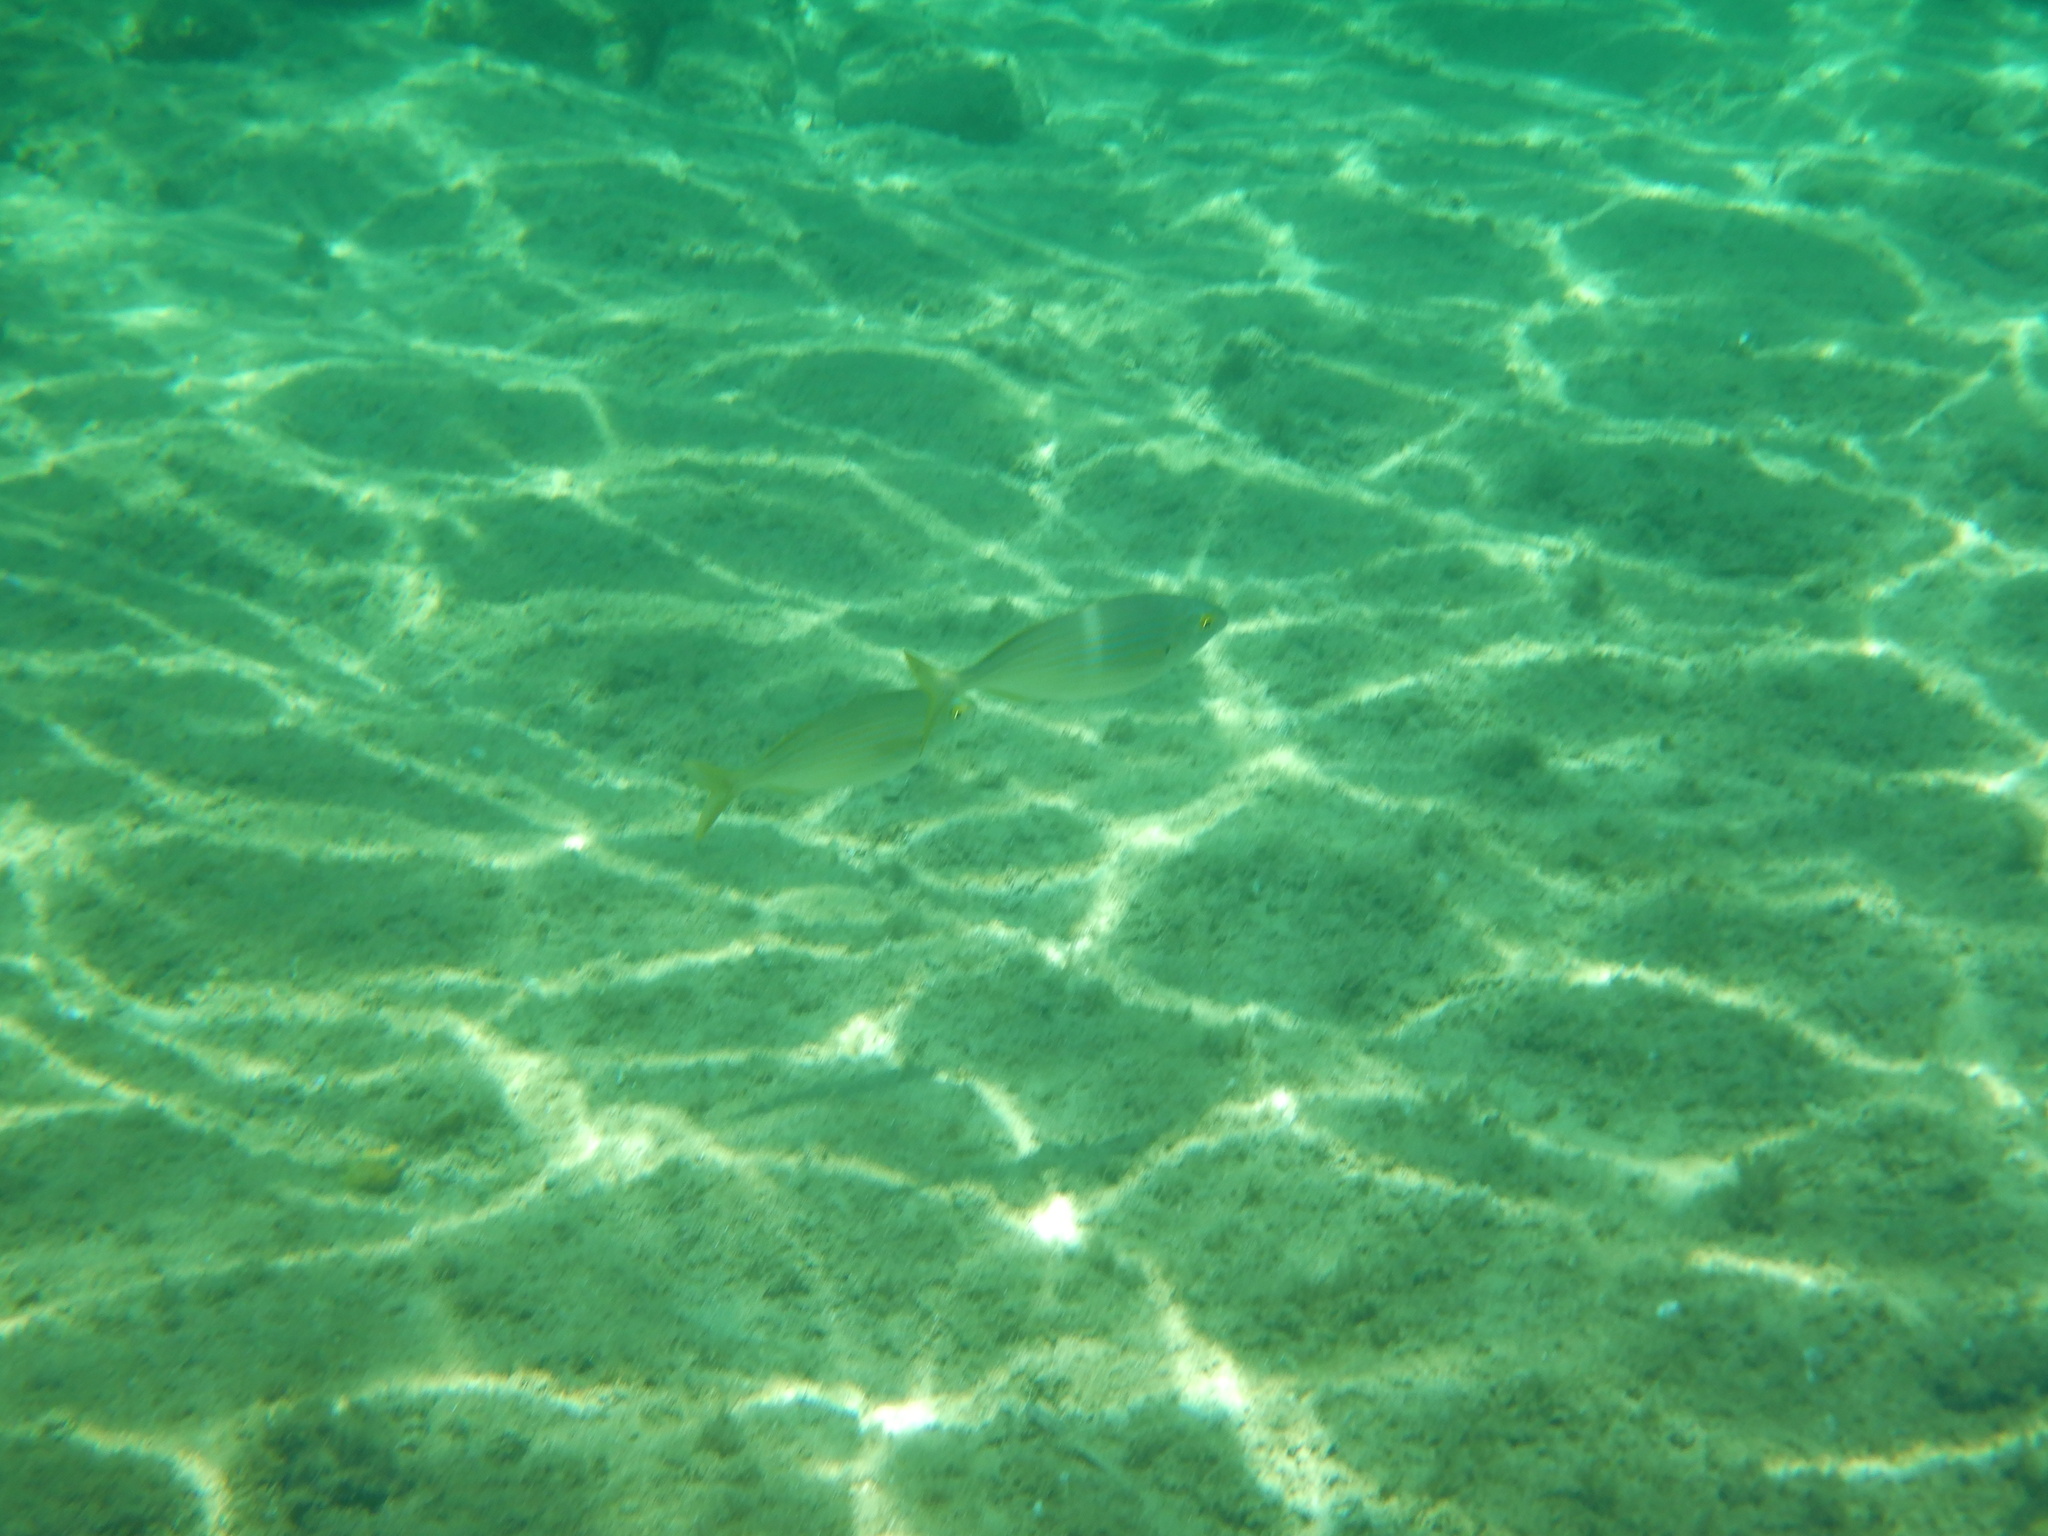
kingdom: Animalia
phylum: Chordata
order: Perciformes
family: Sparidae
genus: Sarpa
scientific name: Sarpa salpa
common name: Salema
